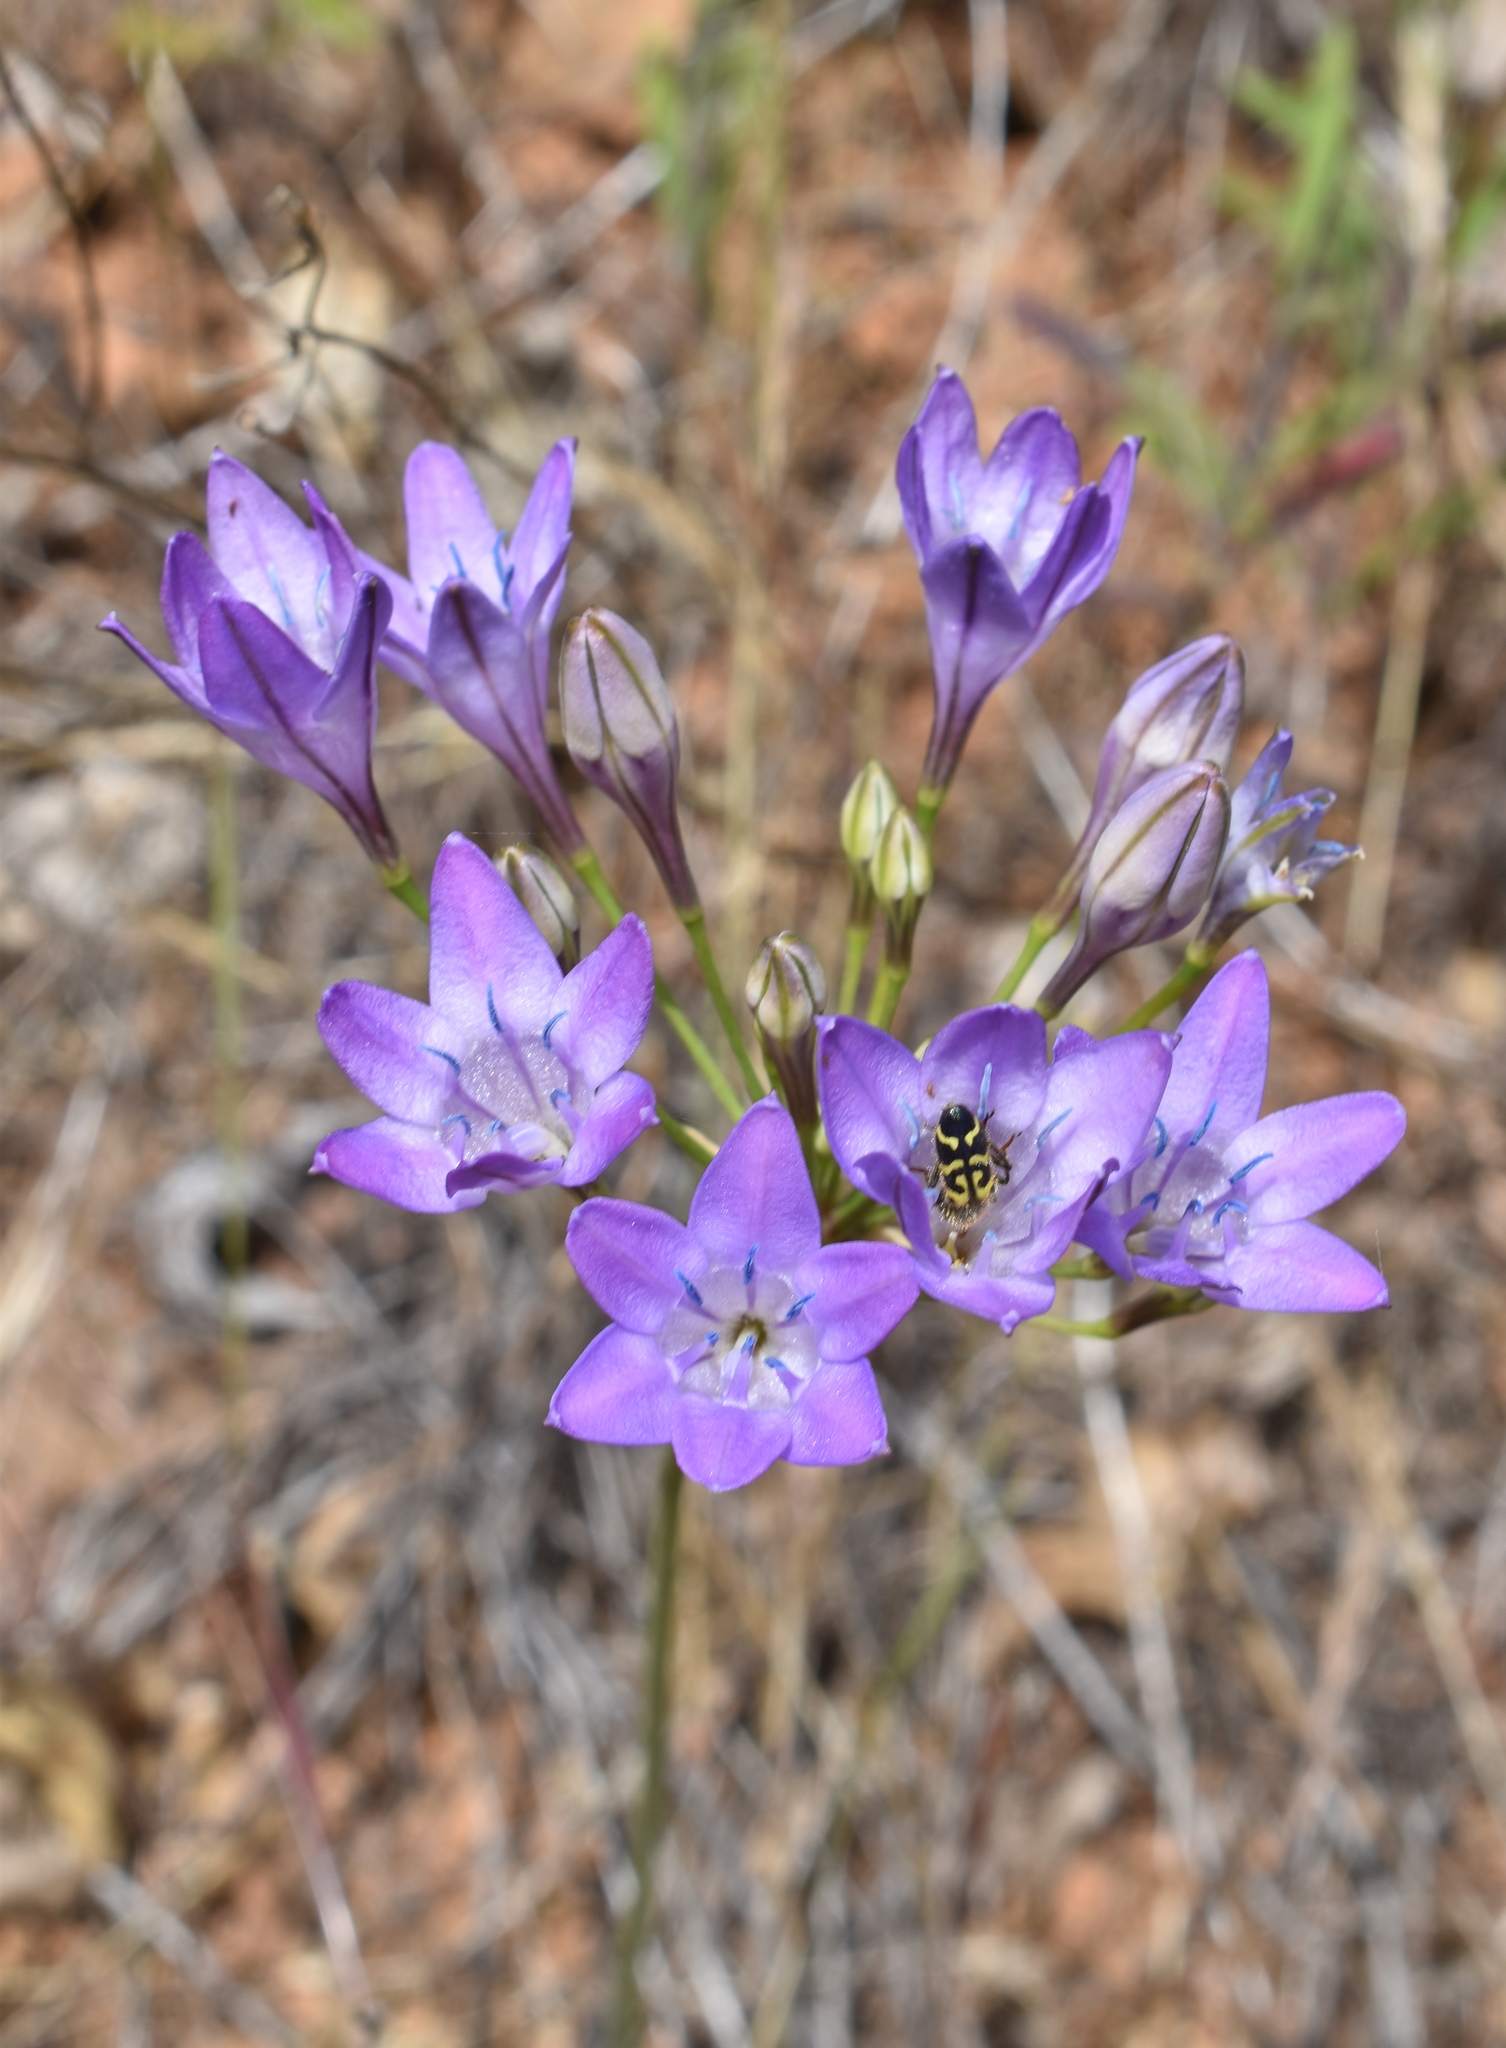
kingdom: Plantae
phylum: Tracheophyta
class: Liliopsida
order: Asparagales
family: Asparagaceae
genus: Triteleia
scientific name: Triteleia bridgesii
